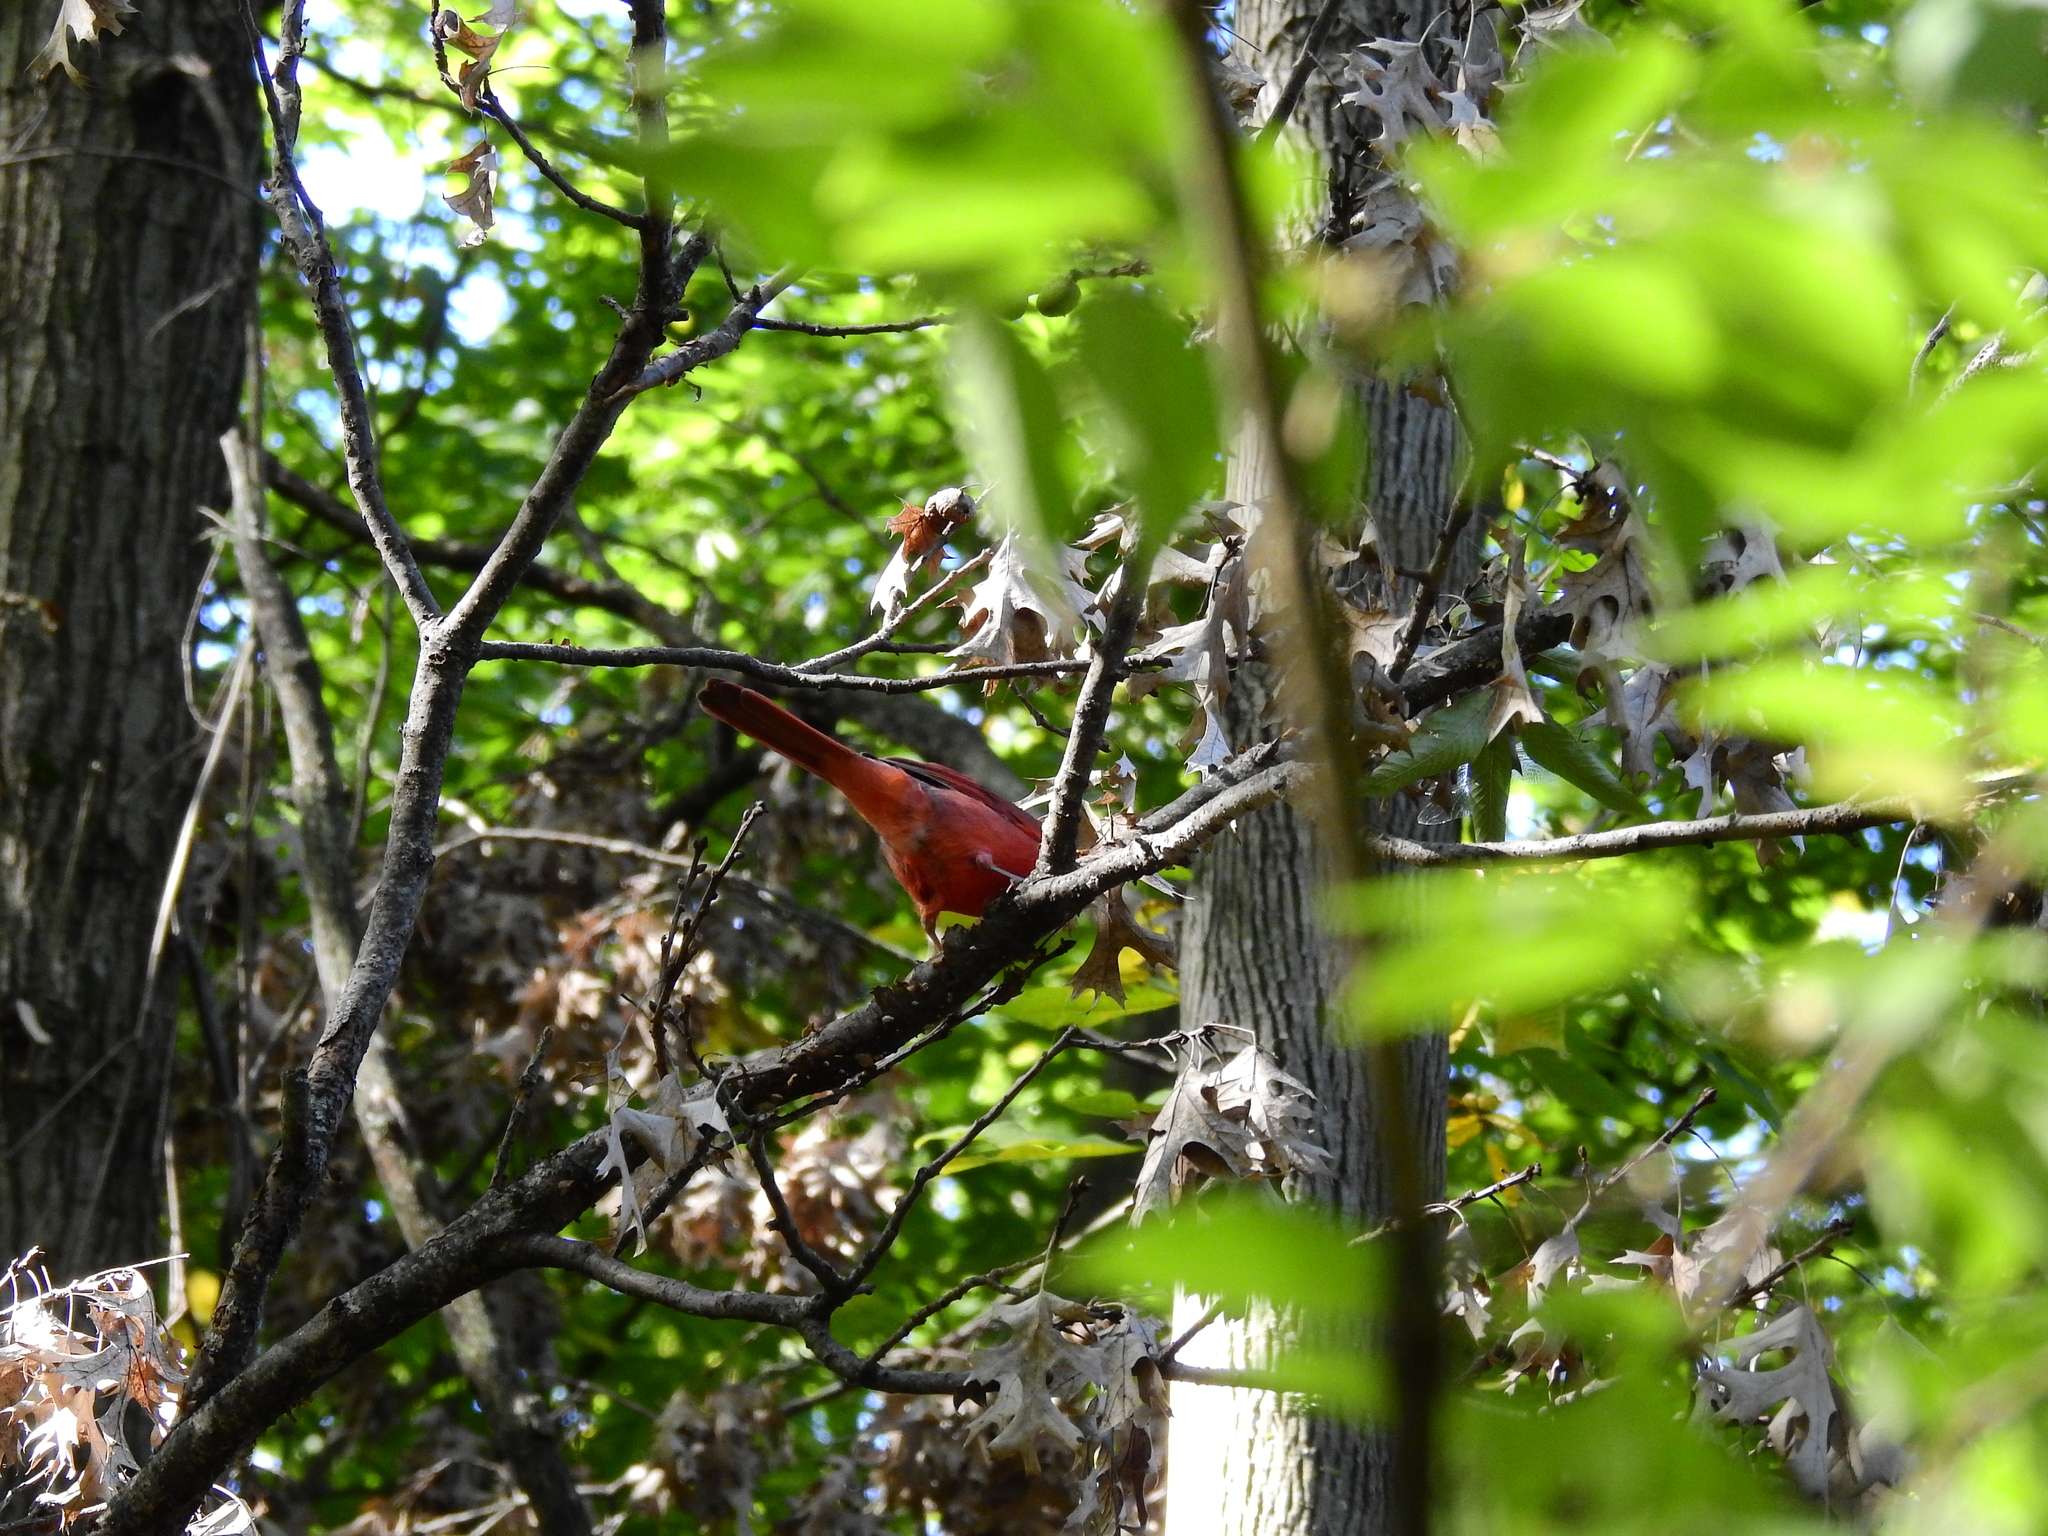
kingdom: Animalia
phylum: Chordata
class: Aves
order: Passeriformes
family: Cardinalidae
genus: Cardinalis
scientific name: Cardinalis cardinalis
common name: Northern cardinal
